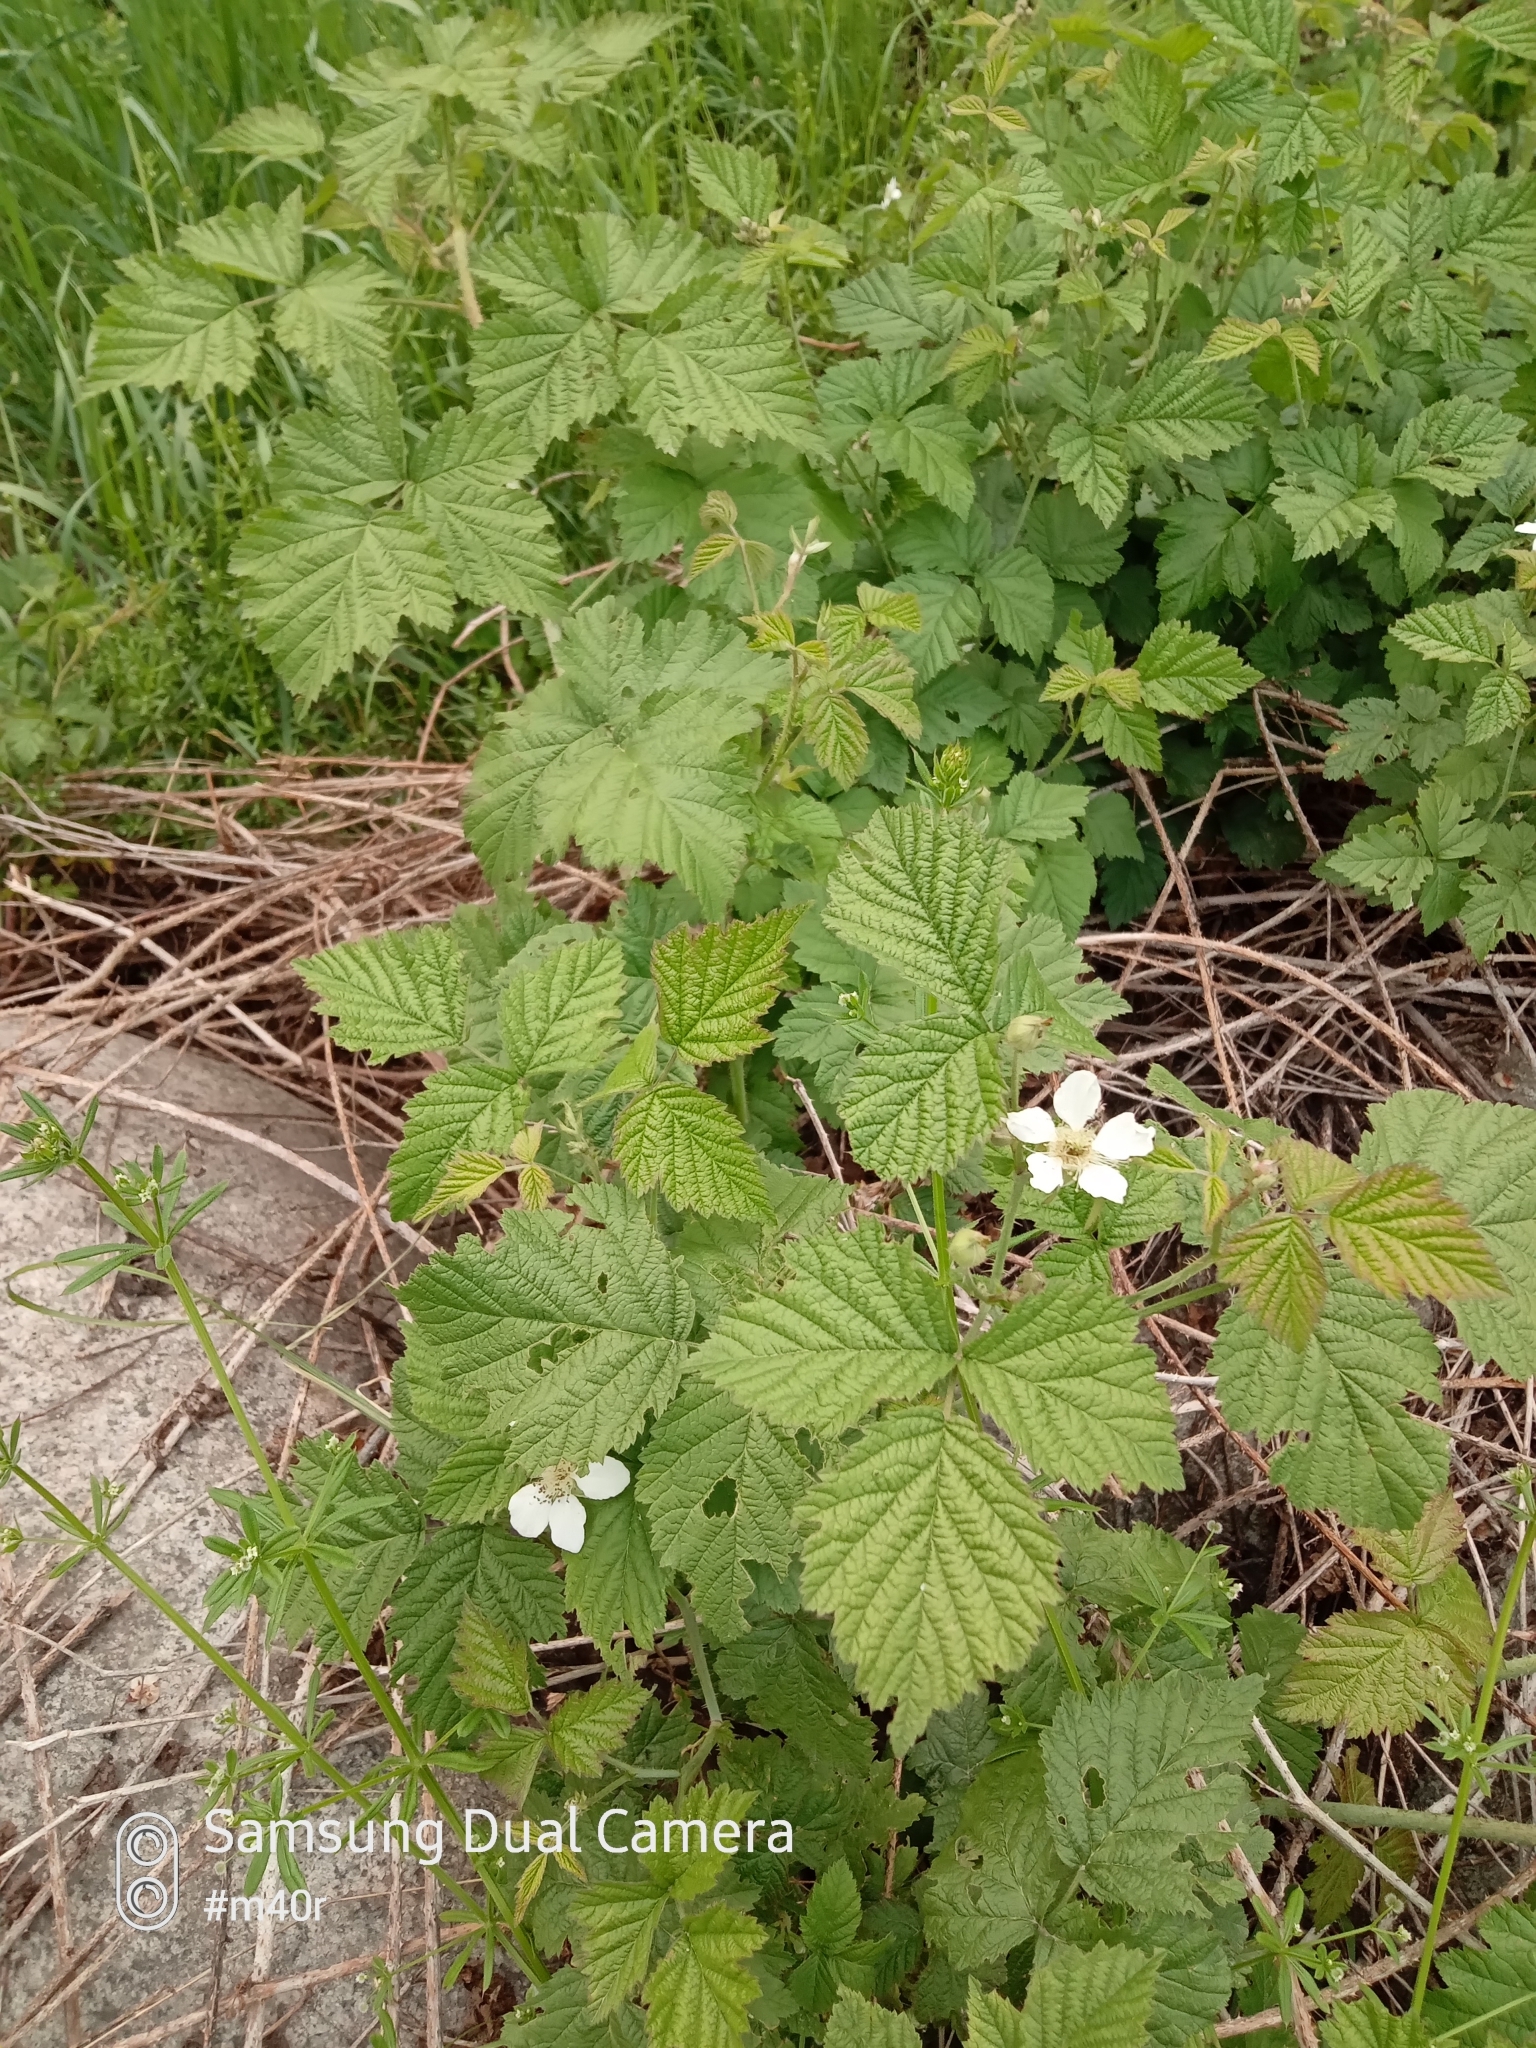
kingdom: Plantae
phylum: Tracheophyta
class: Magnoliopsida
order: Rosales
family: Rosaceae
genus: Rubus
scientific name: Rubus caesius
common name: Dewberry
